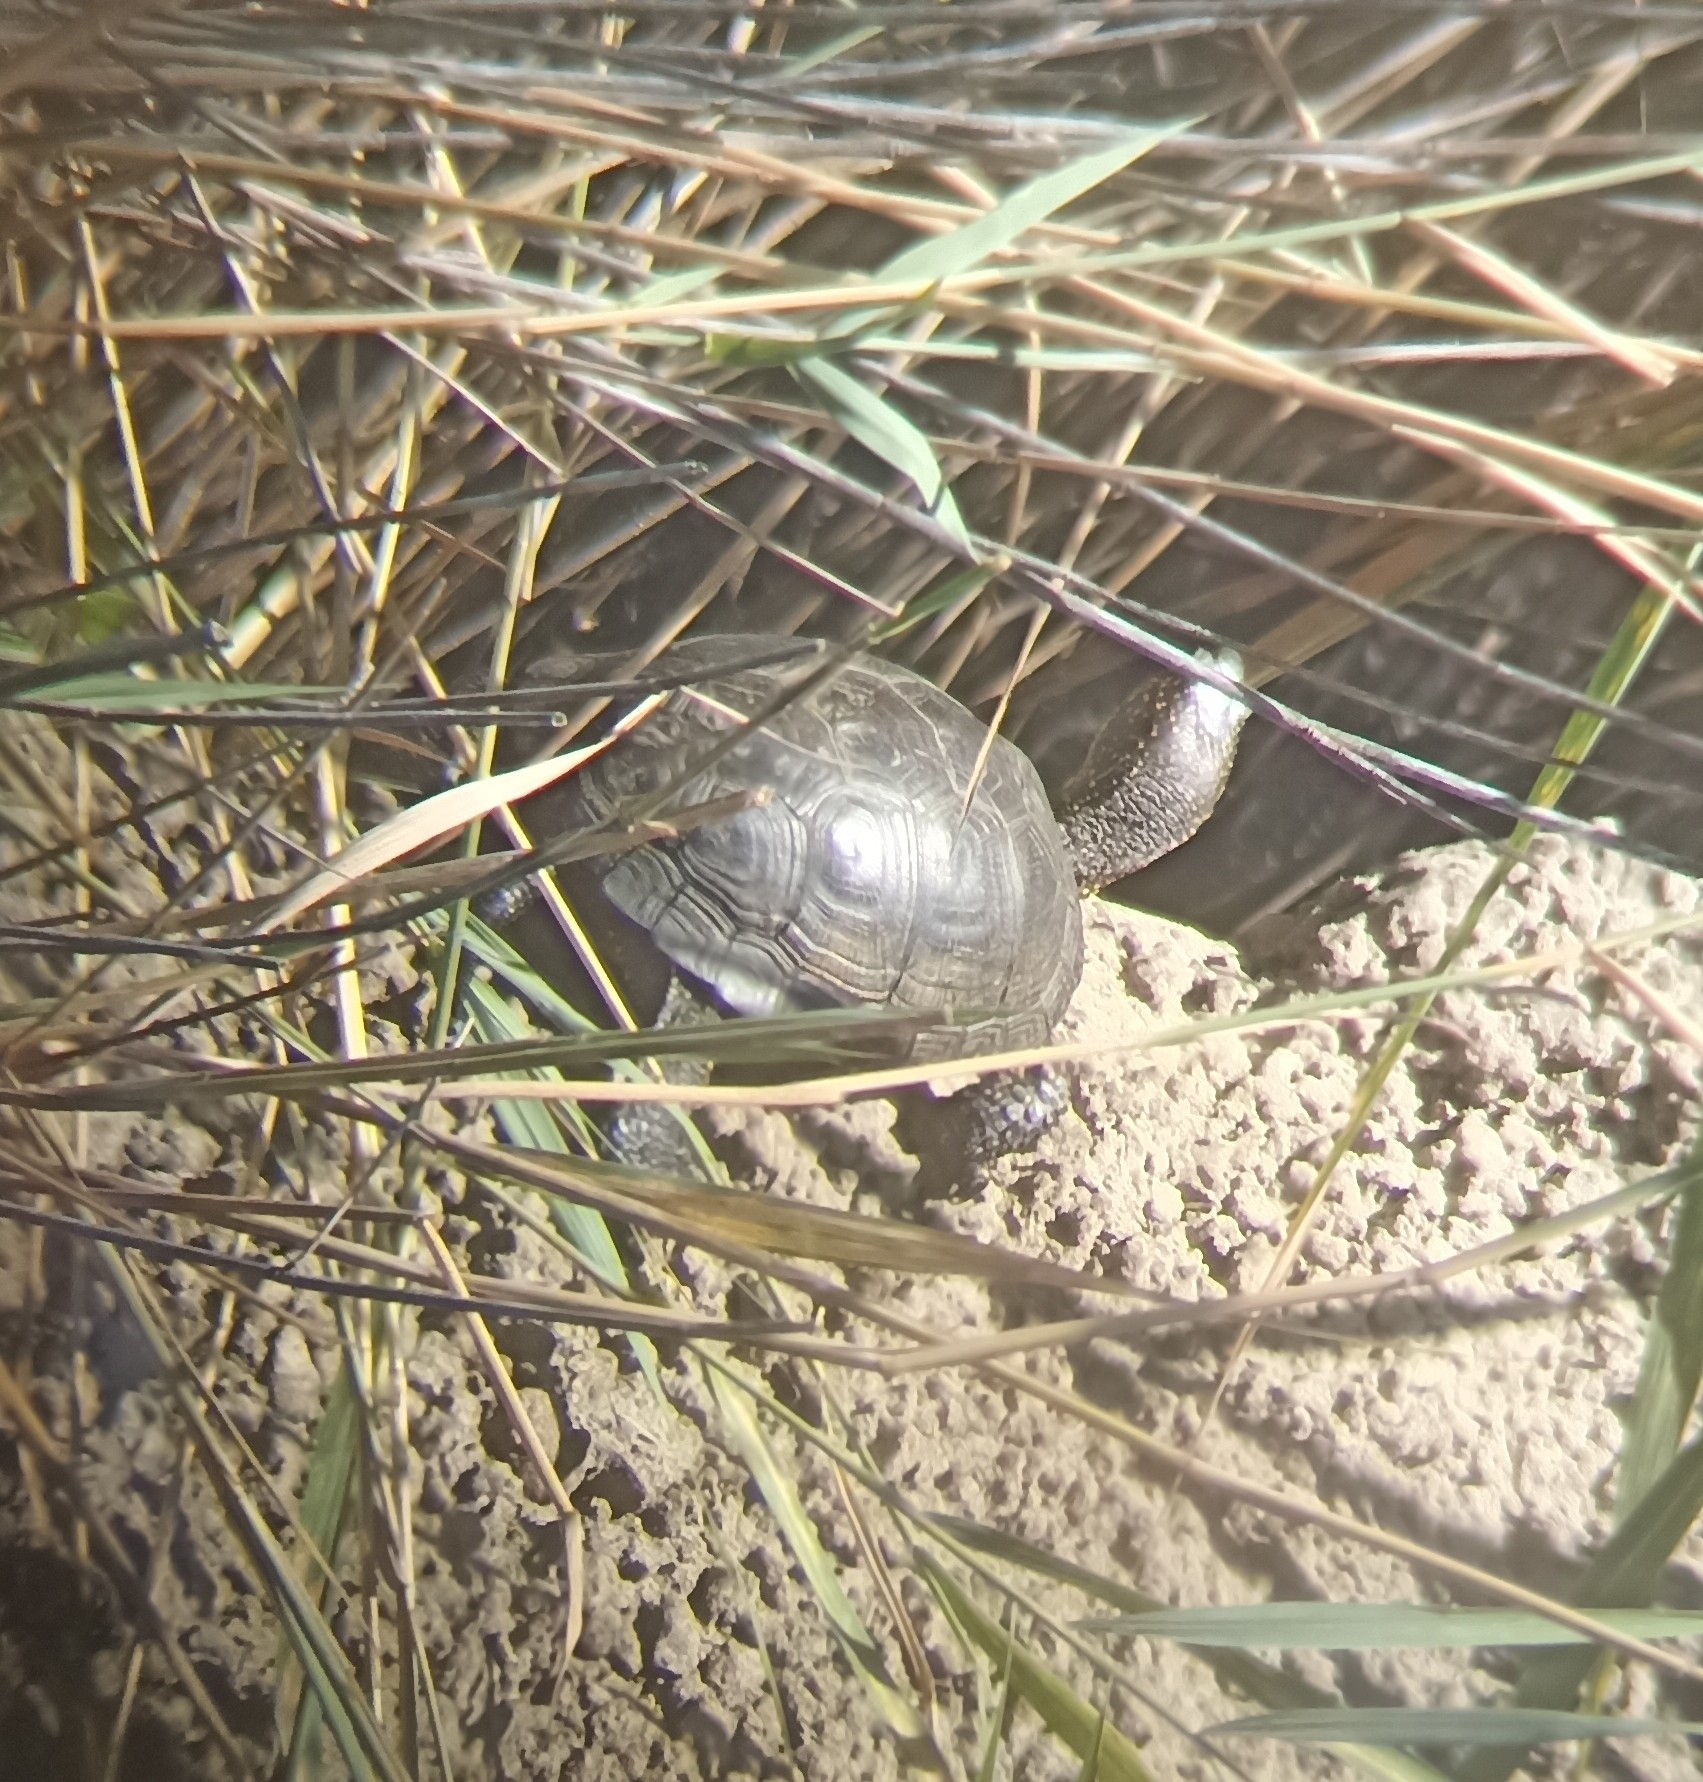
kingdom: Animalia
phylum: Chordata
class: Testudines
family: Emydidae
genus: Emys
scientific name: Emys orbicularis
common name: European pond turtle
